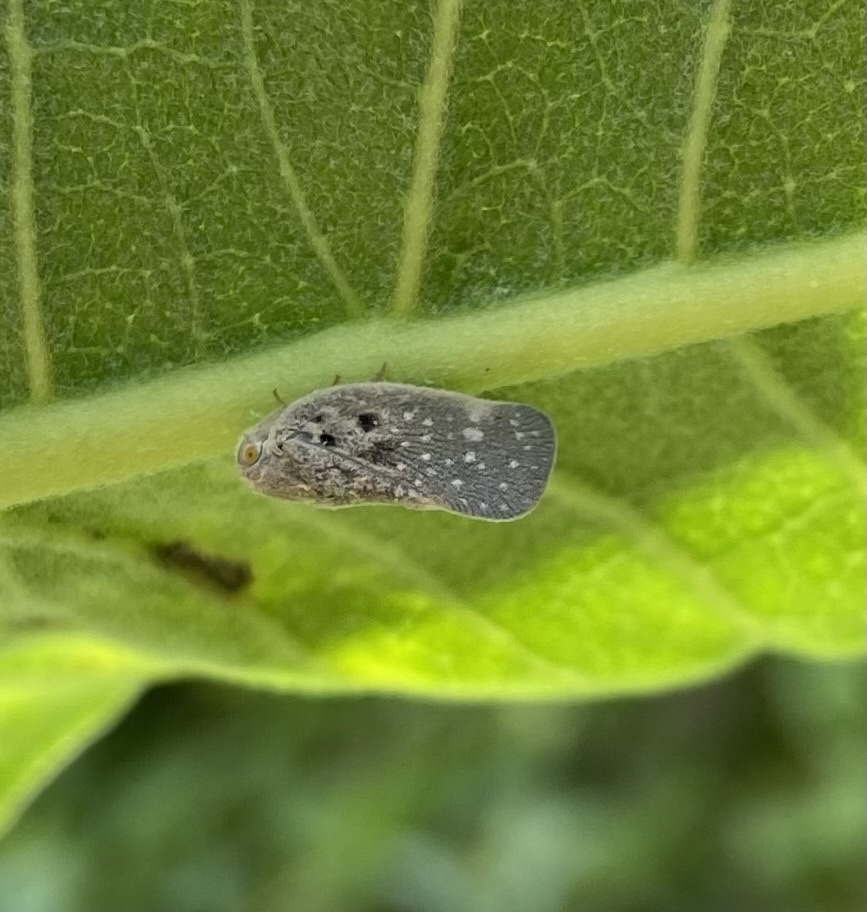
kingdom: Animalia
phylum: Arthropoda
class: Insecta
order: Hemiptera
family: Flatidae
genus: Metcalfa
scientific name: Metcalfa pruinosa
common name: Citrus flatid planthopper
